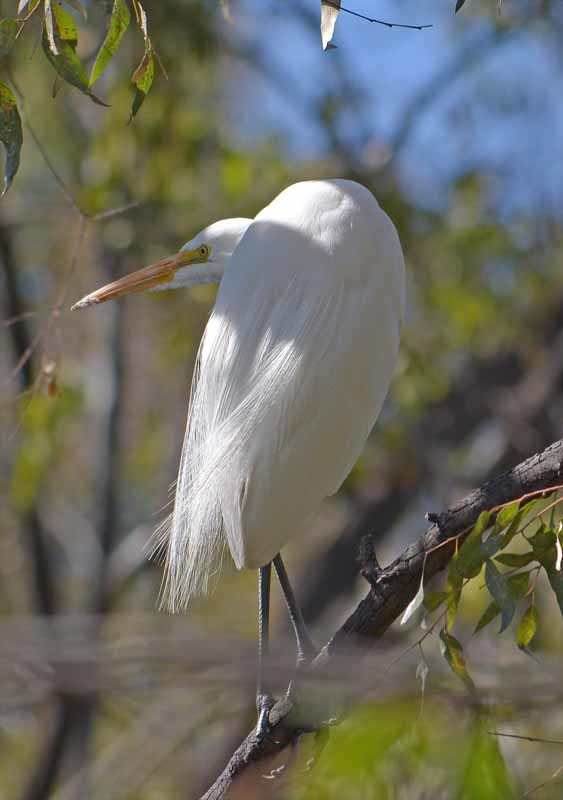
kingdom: Animalia
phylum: Chordata
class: Aves
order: Pelecaniformes
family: Ardeidae
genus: Ardea
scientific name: Ardea alba
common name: Great egret
